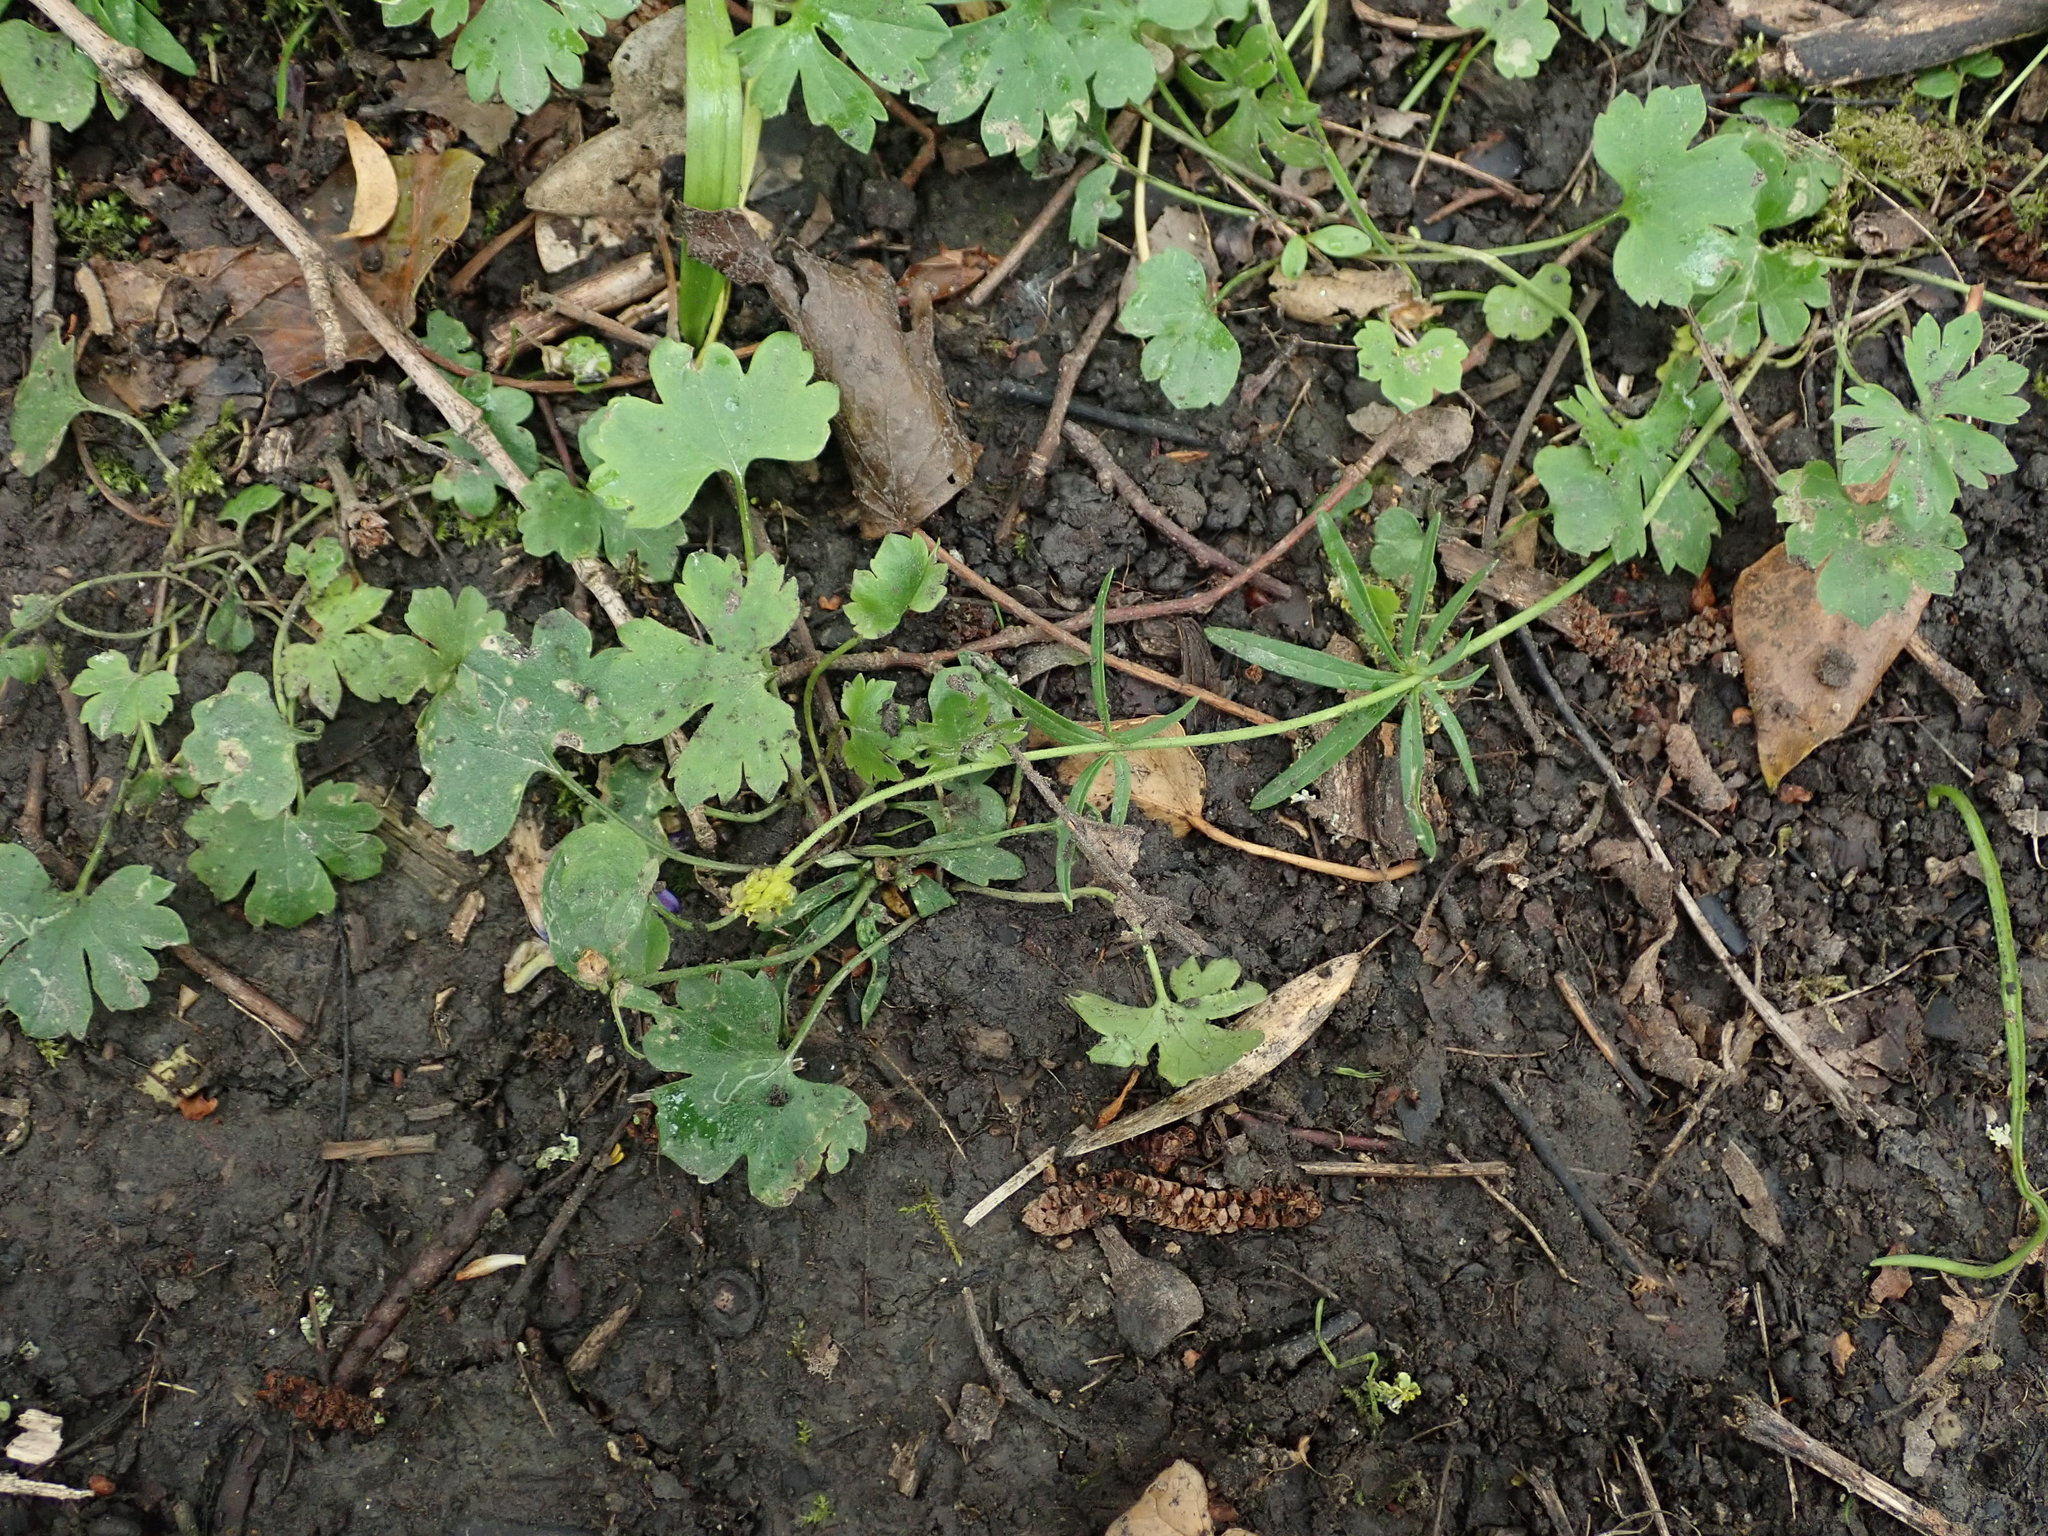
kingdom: Plantae
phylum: Tracheophyta
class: Magnoliopsida
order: Ranunculales
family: Ranunculaceae
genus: Ranunculus
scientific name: Ranunculus auricomus
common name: Goldilocks buttercup
